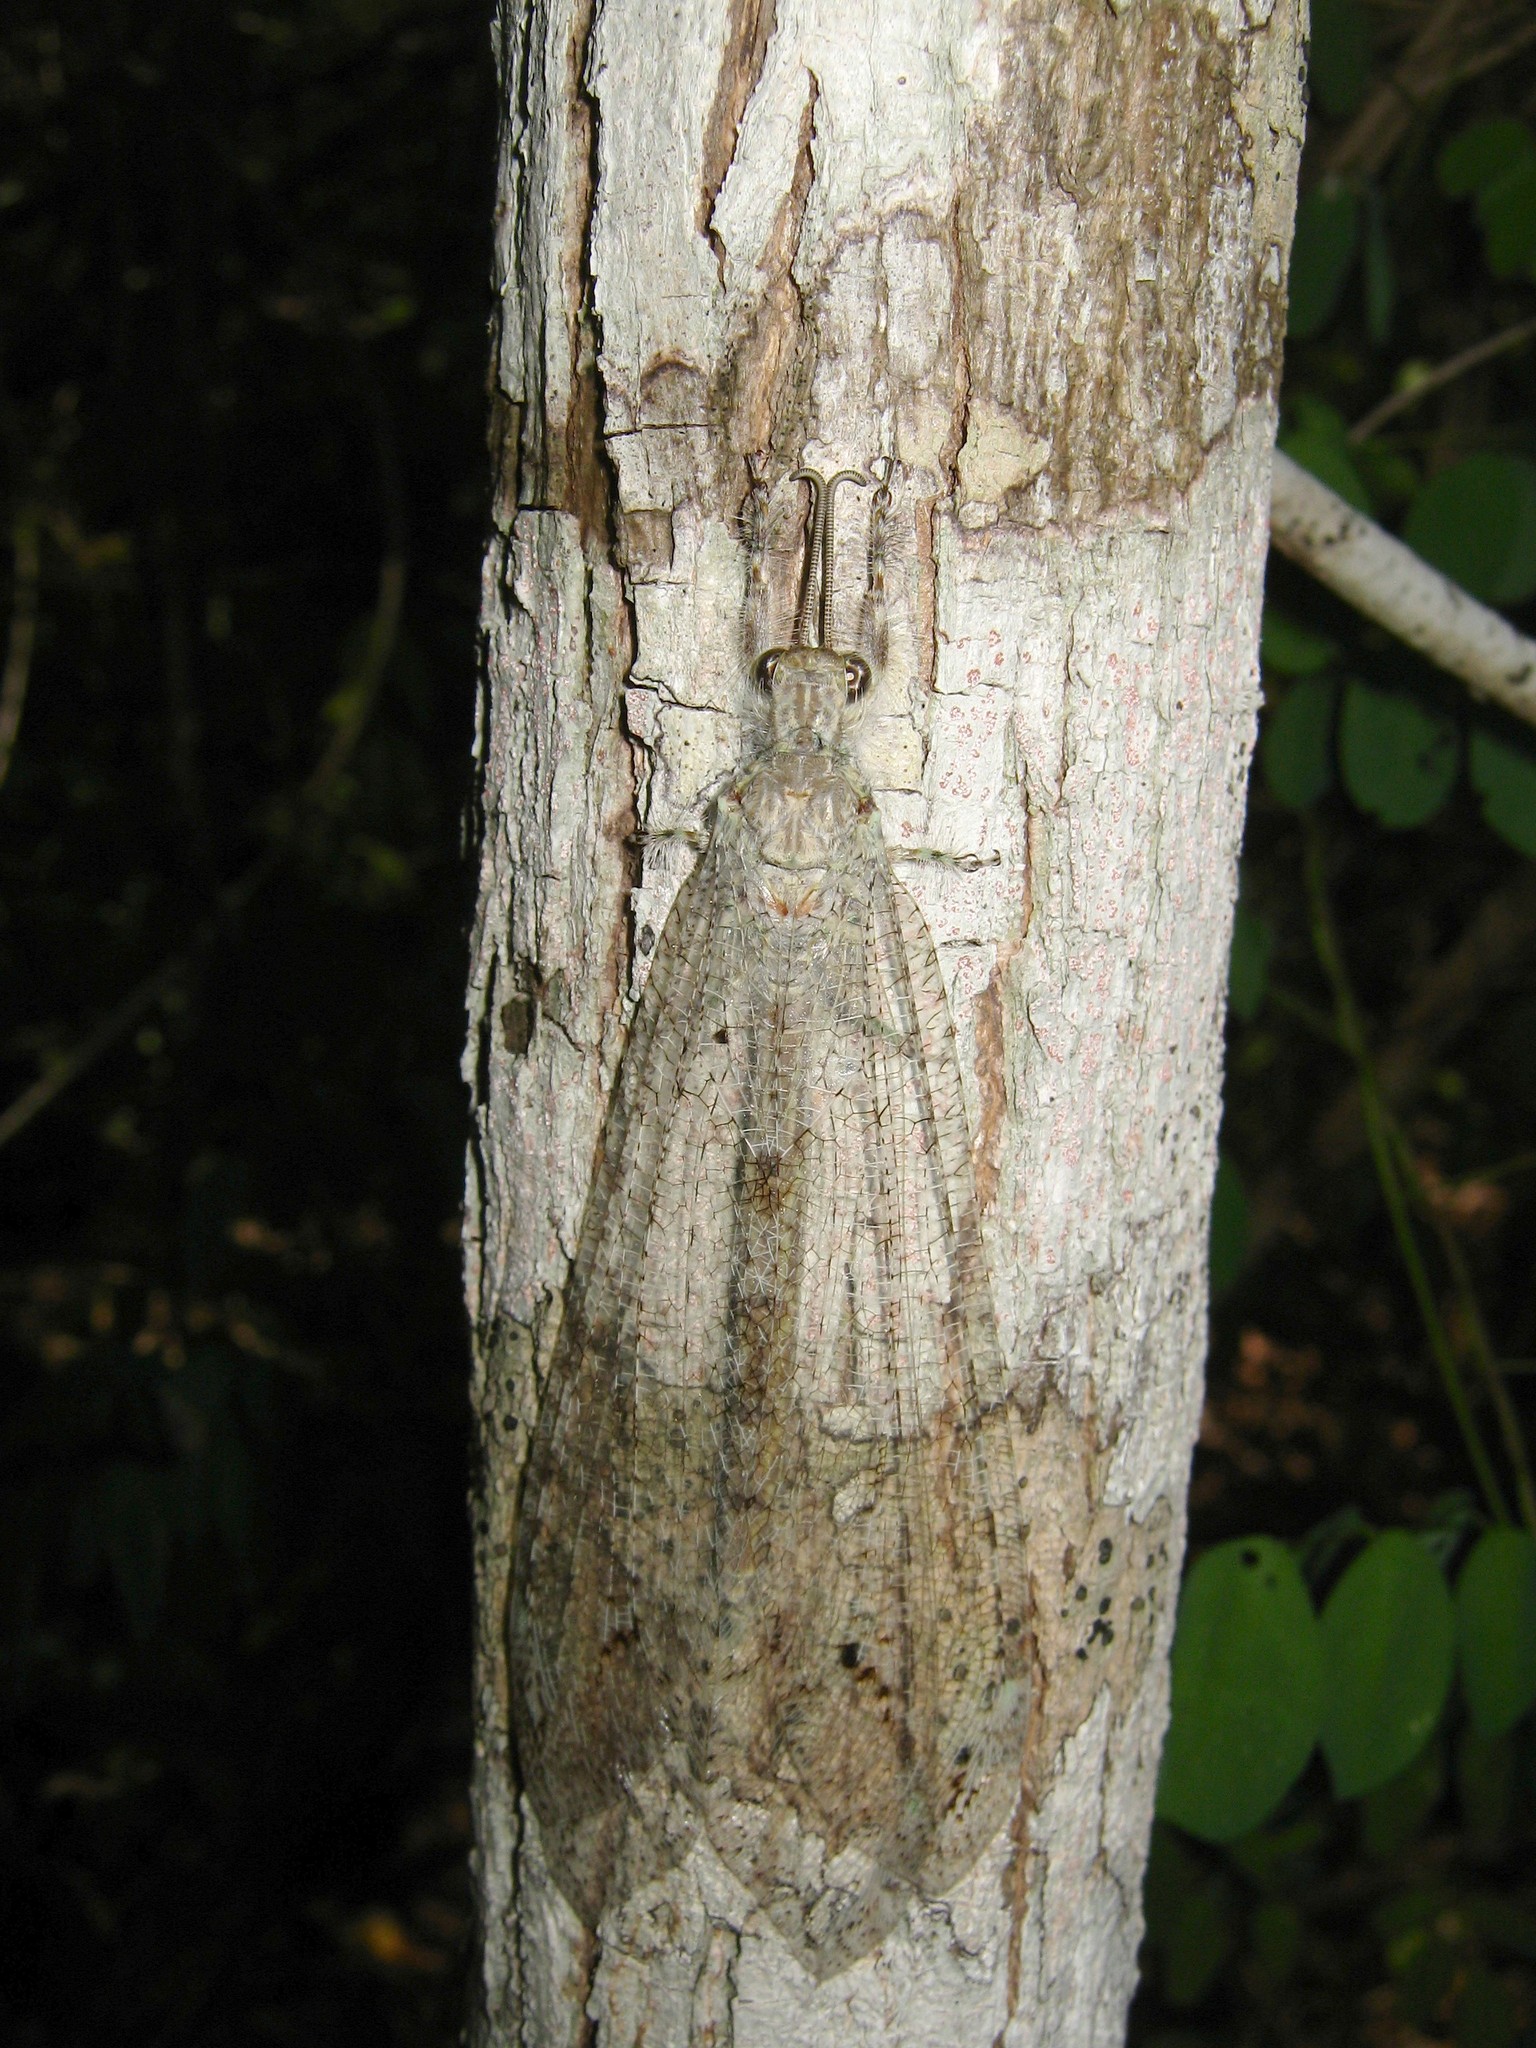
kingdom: Animalia
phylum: Arthropoda
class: Insecta
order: Neuroptera
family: Myrmeleontidae
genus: Vella
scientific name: Vella fallax
